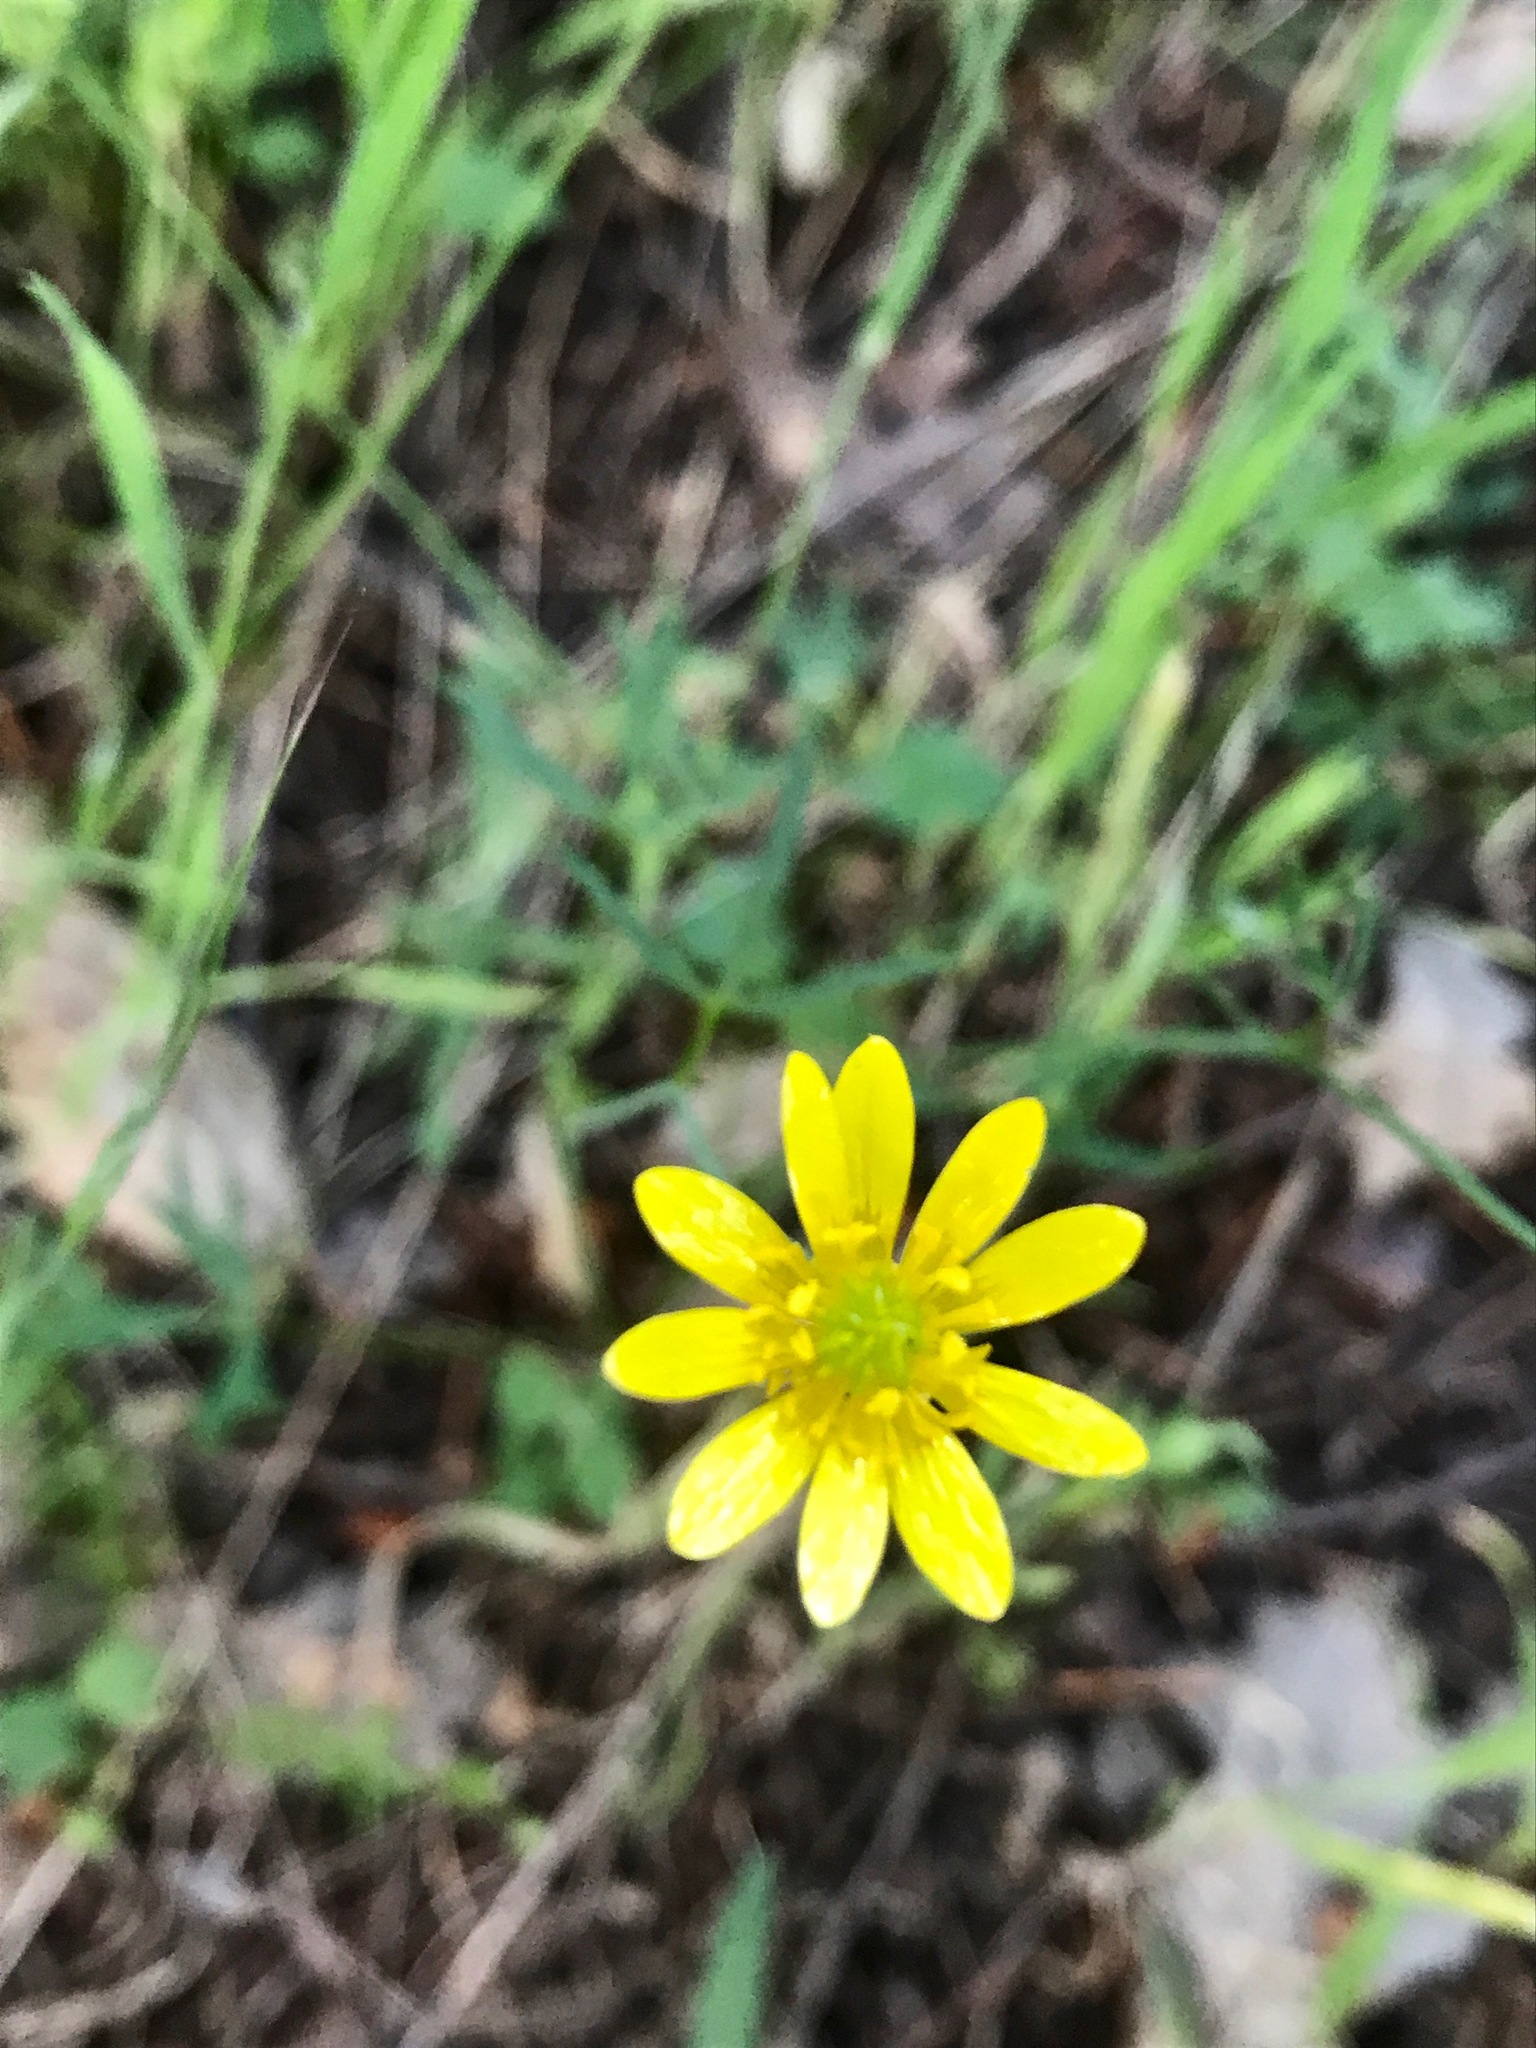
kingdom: Plantae
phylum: Tracheophyta
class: Magnoliopsida
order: Ranunculales
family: Ranunculaceae
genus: Ranunculus
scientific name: Ranunculus californicus
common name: California buttercup
